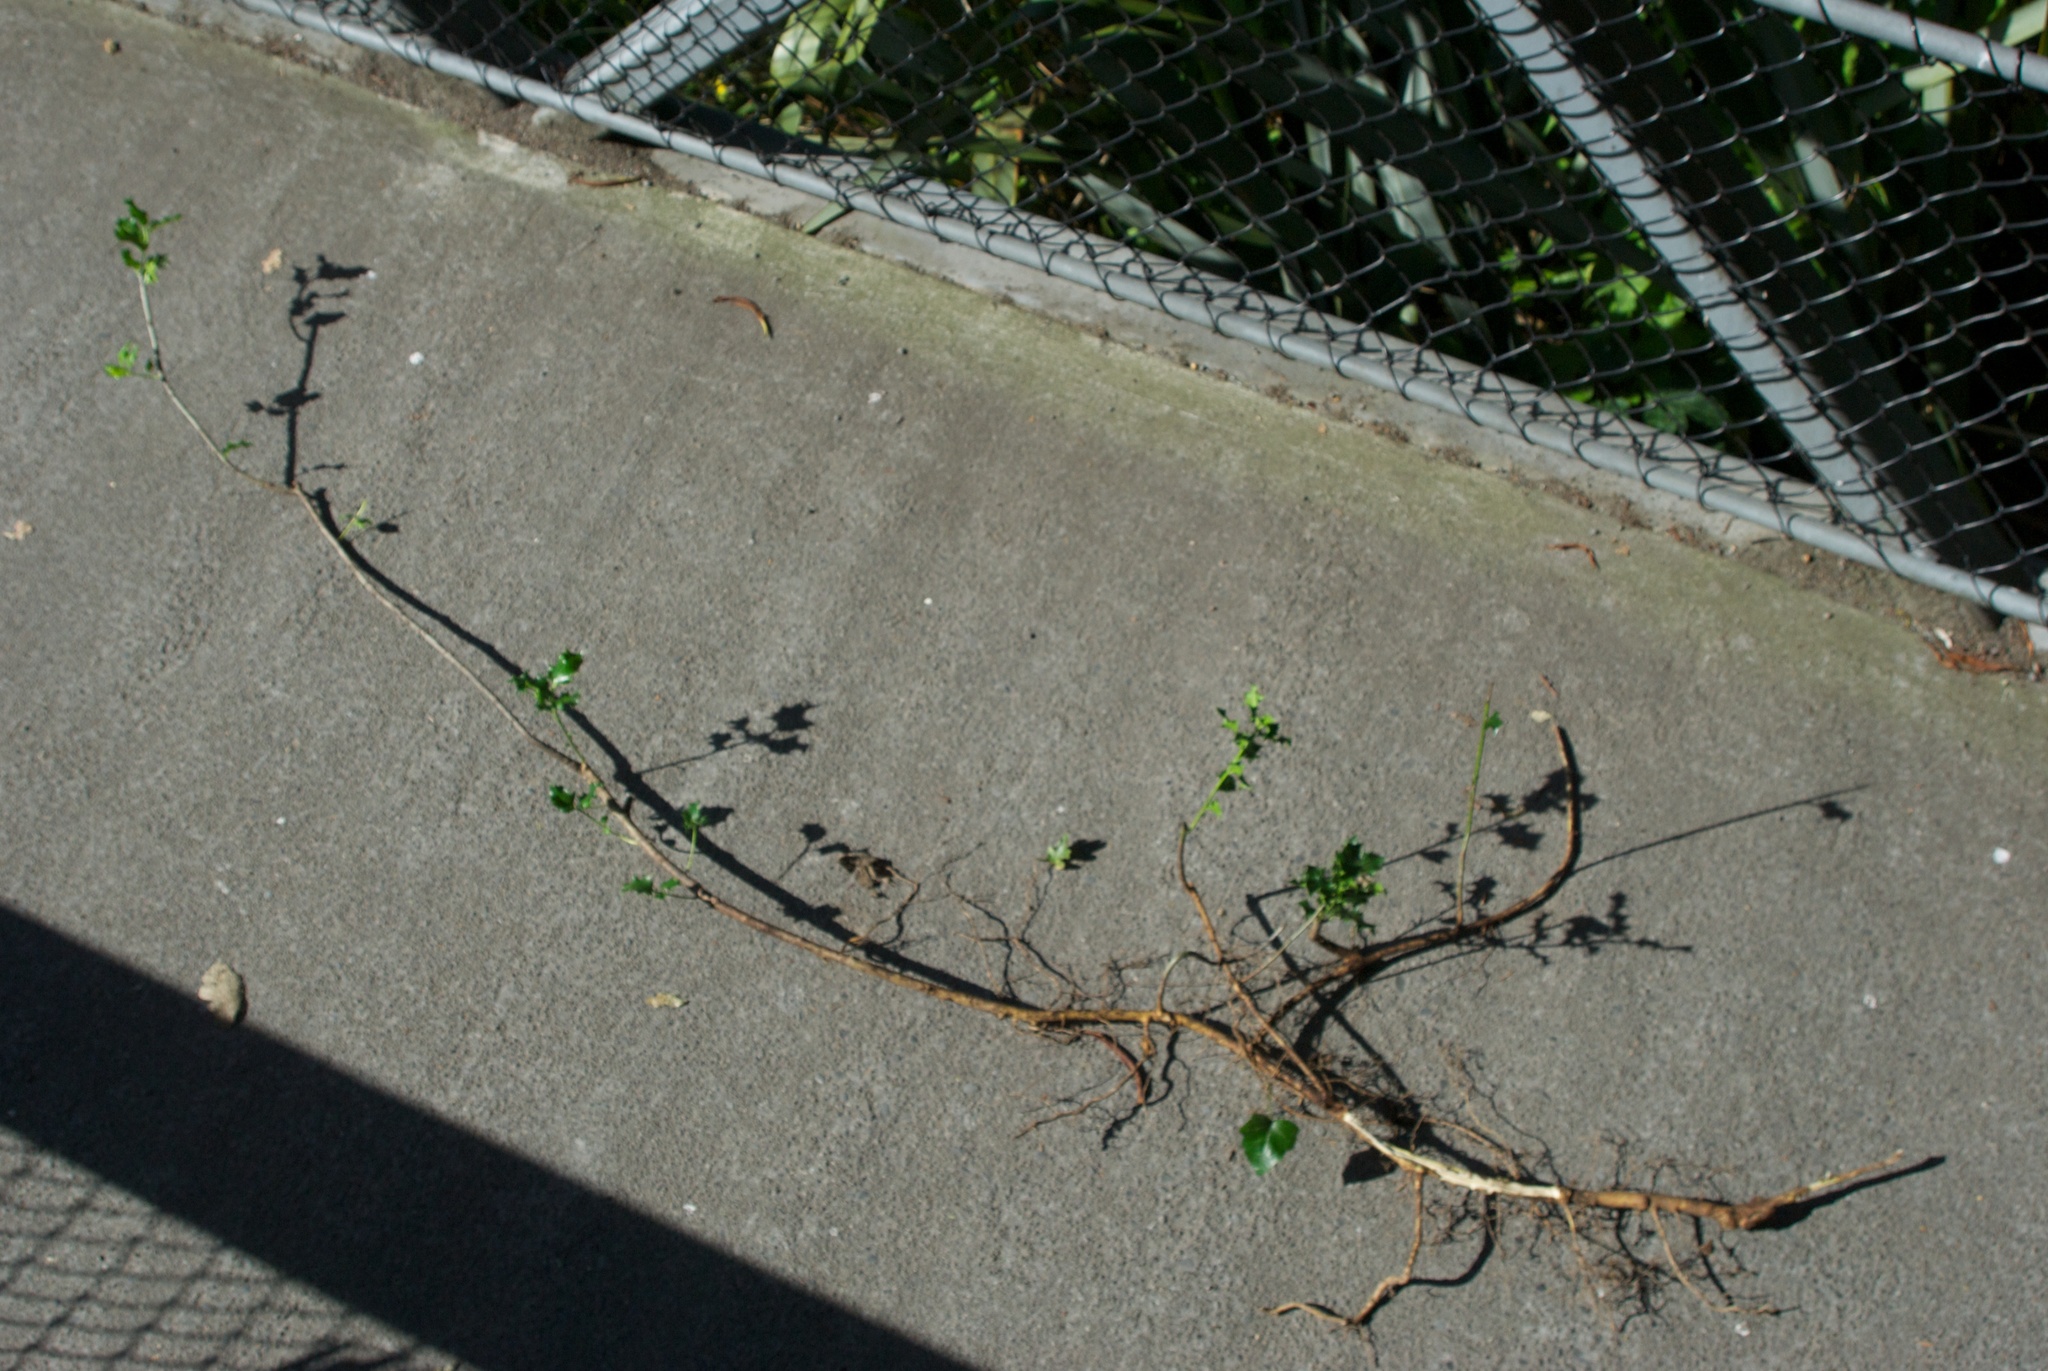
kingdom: Plantae
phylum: Tracheophyta
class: Magnoliopsida
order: Aquifoliales
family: Aquifoliaceae
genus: Ilex
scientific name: Ilex aquifolium
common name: English holly
